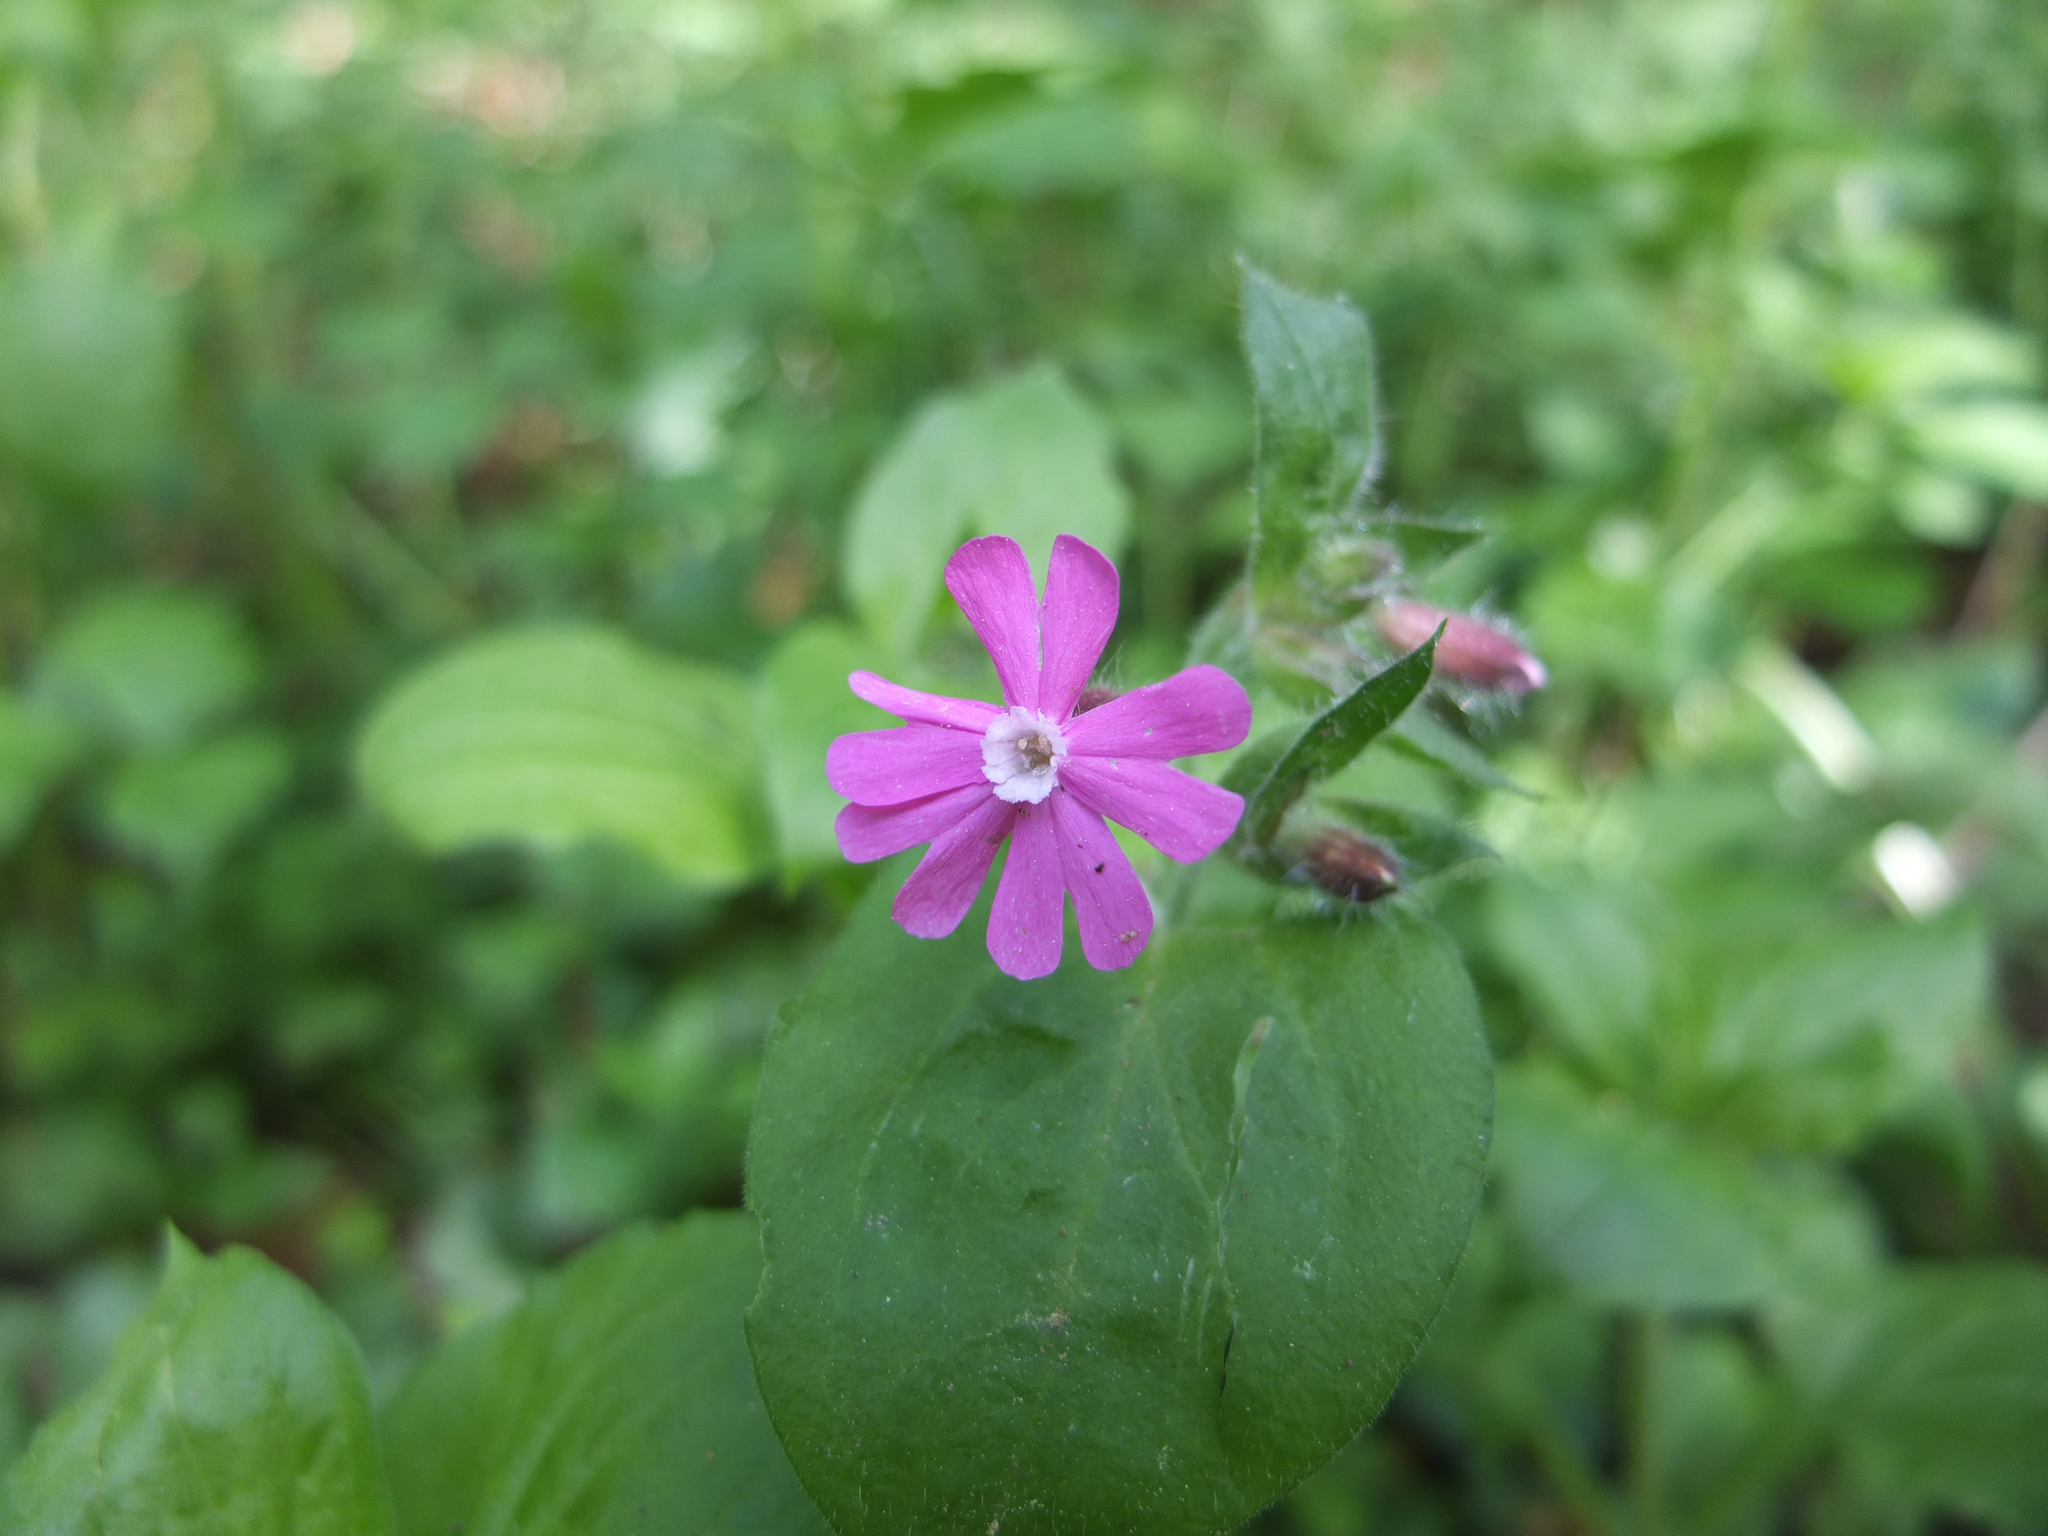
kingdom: Plantae
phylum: Tracheophyta
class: Magnoliopsida
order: Caryophyllales
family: Caryophyllaceae
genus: Silene
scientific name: Silene dioica
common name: Red campion
